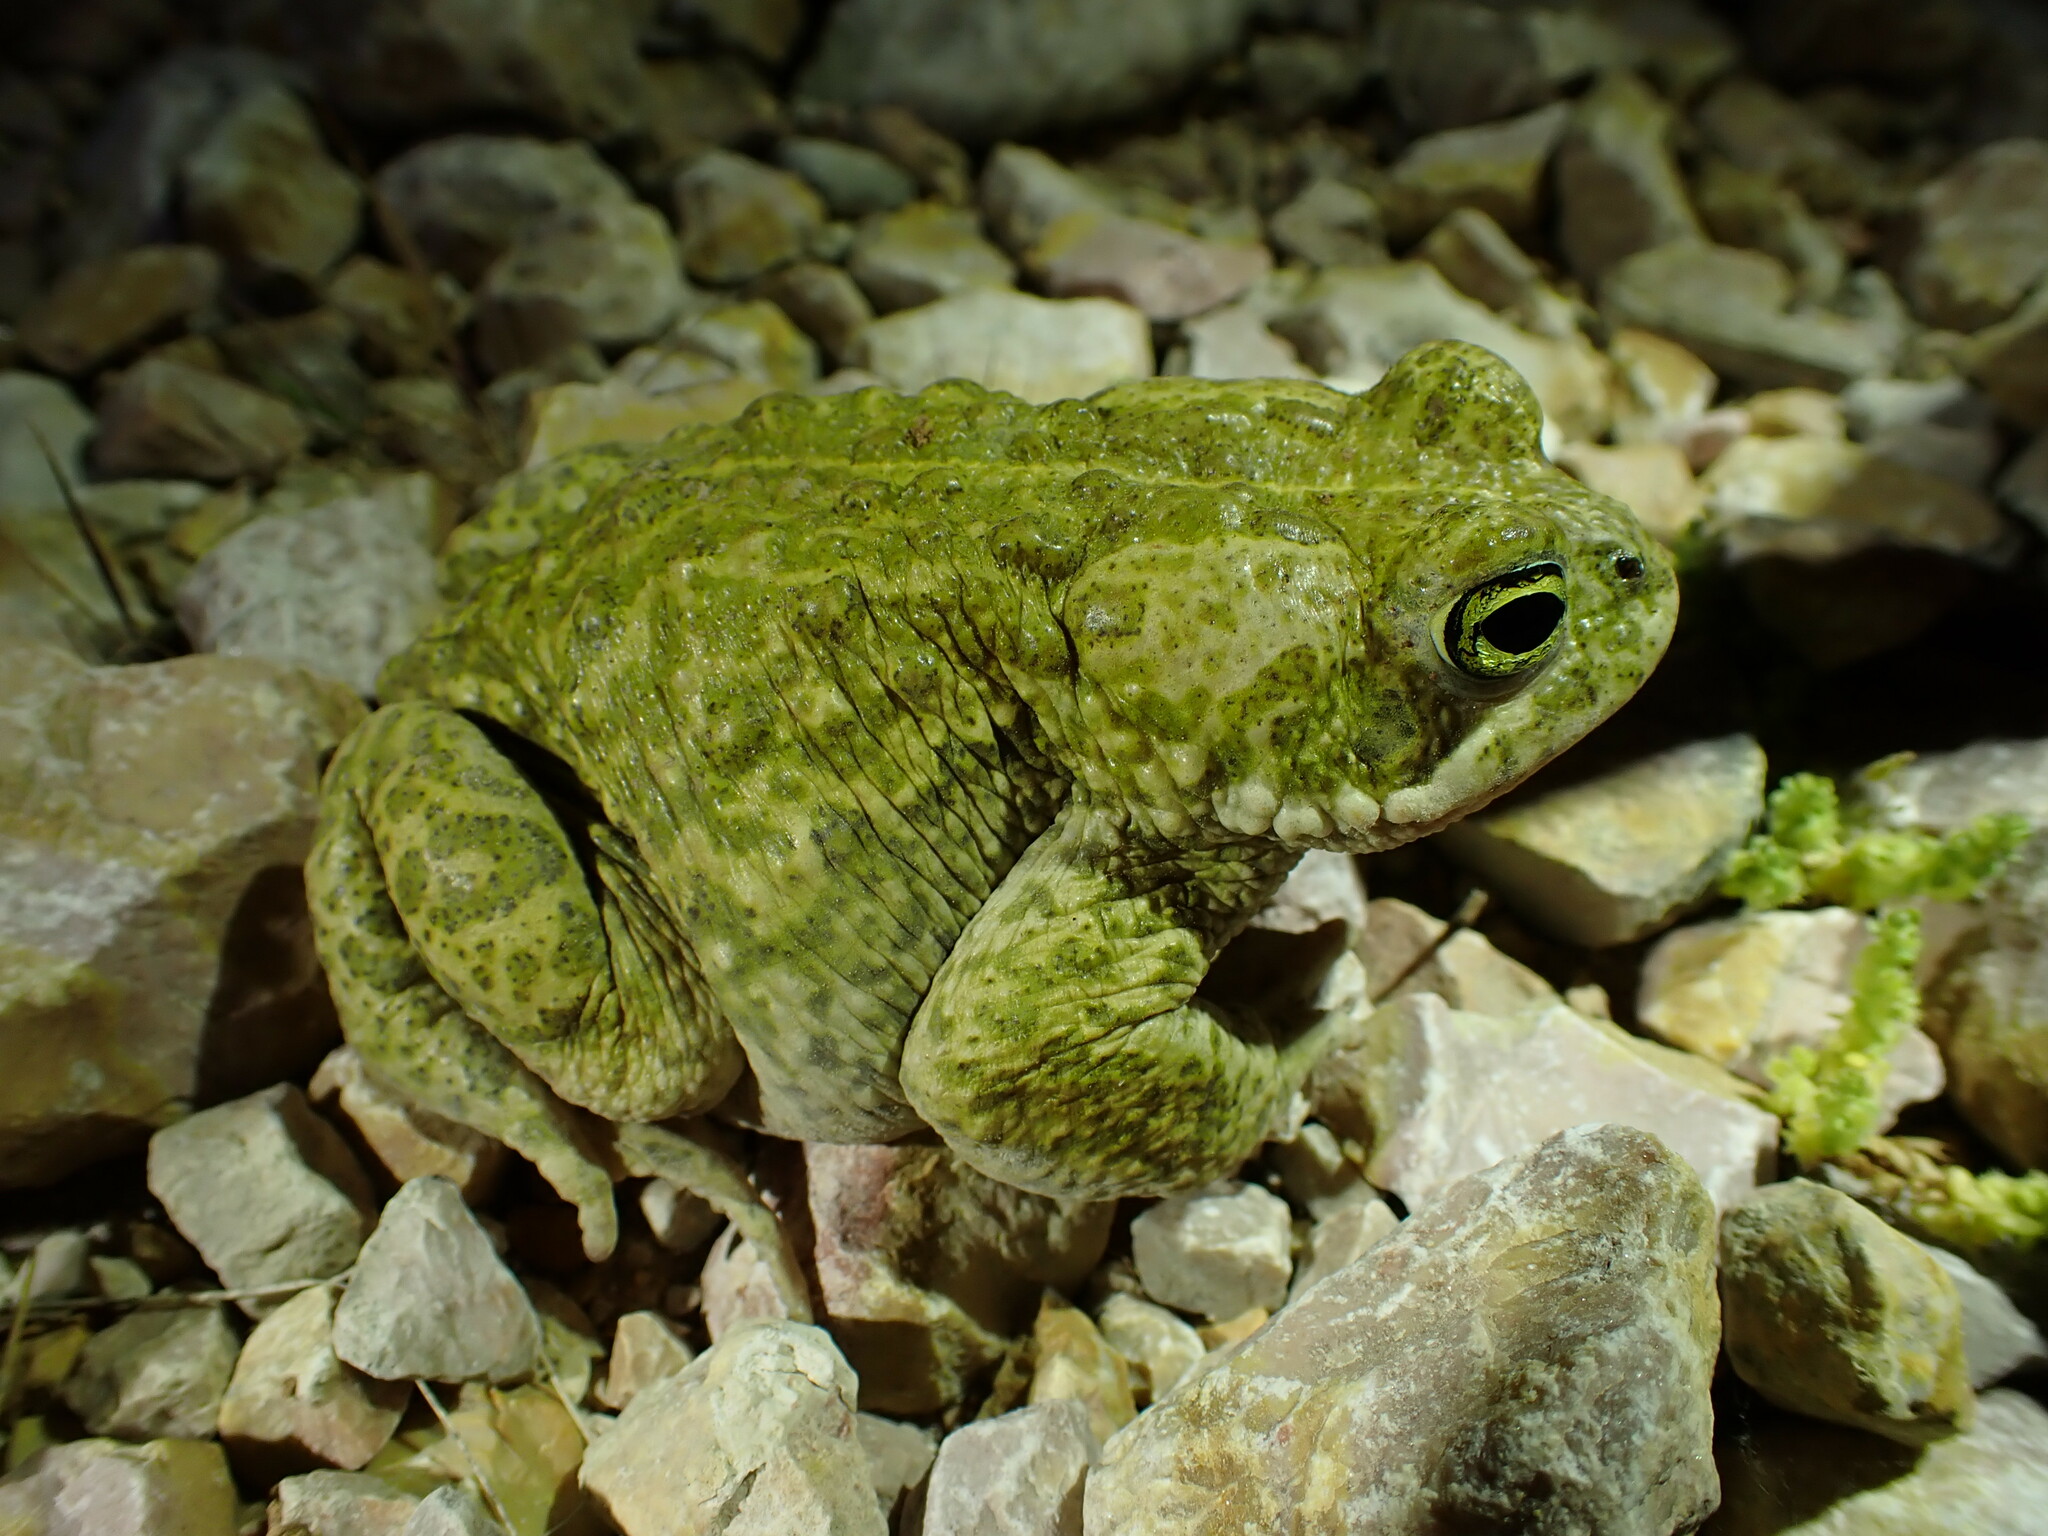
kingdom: Animalia
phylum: Chordata
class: Amphibia
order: Anura
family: Bufonidae
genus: Epidalea
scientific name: Epidalea calamita
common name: Natterjack toad
